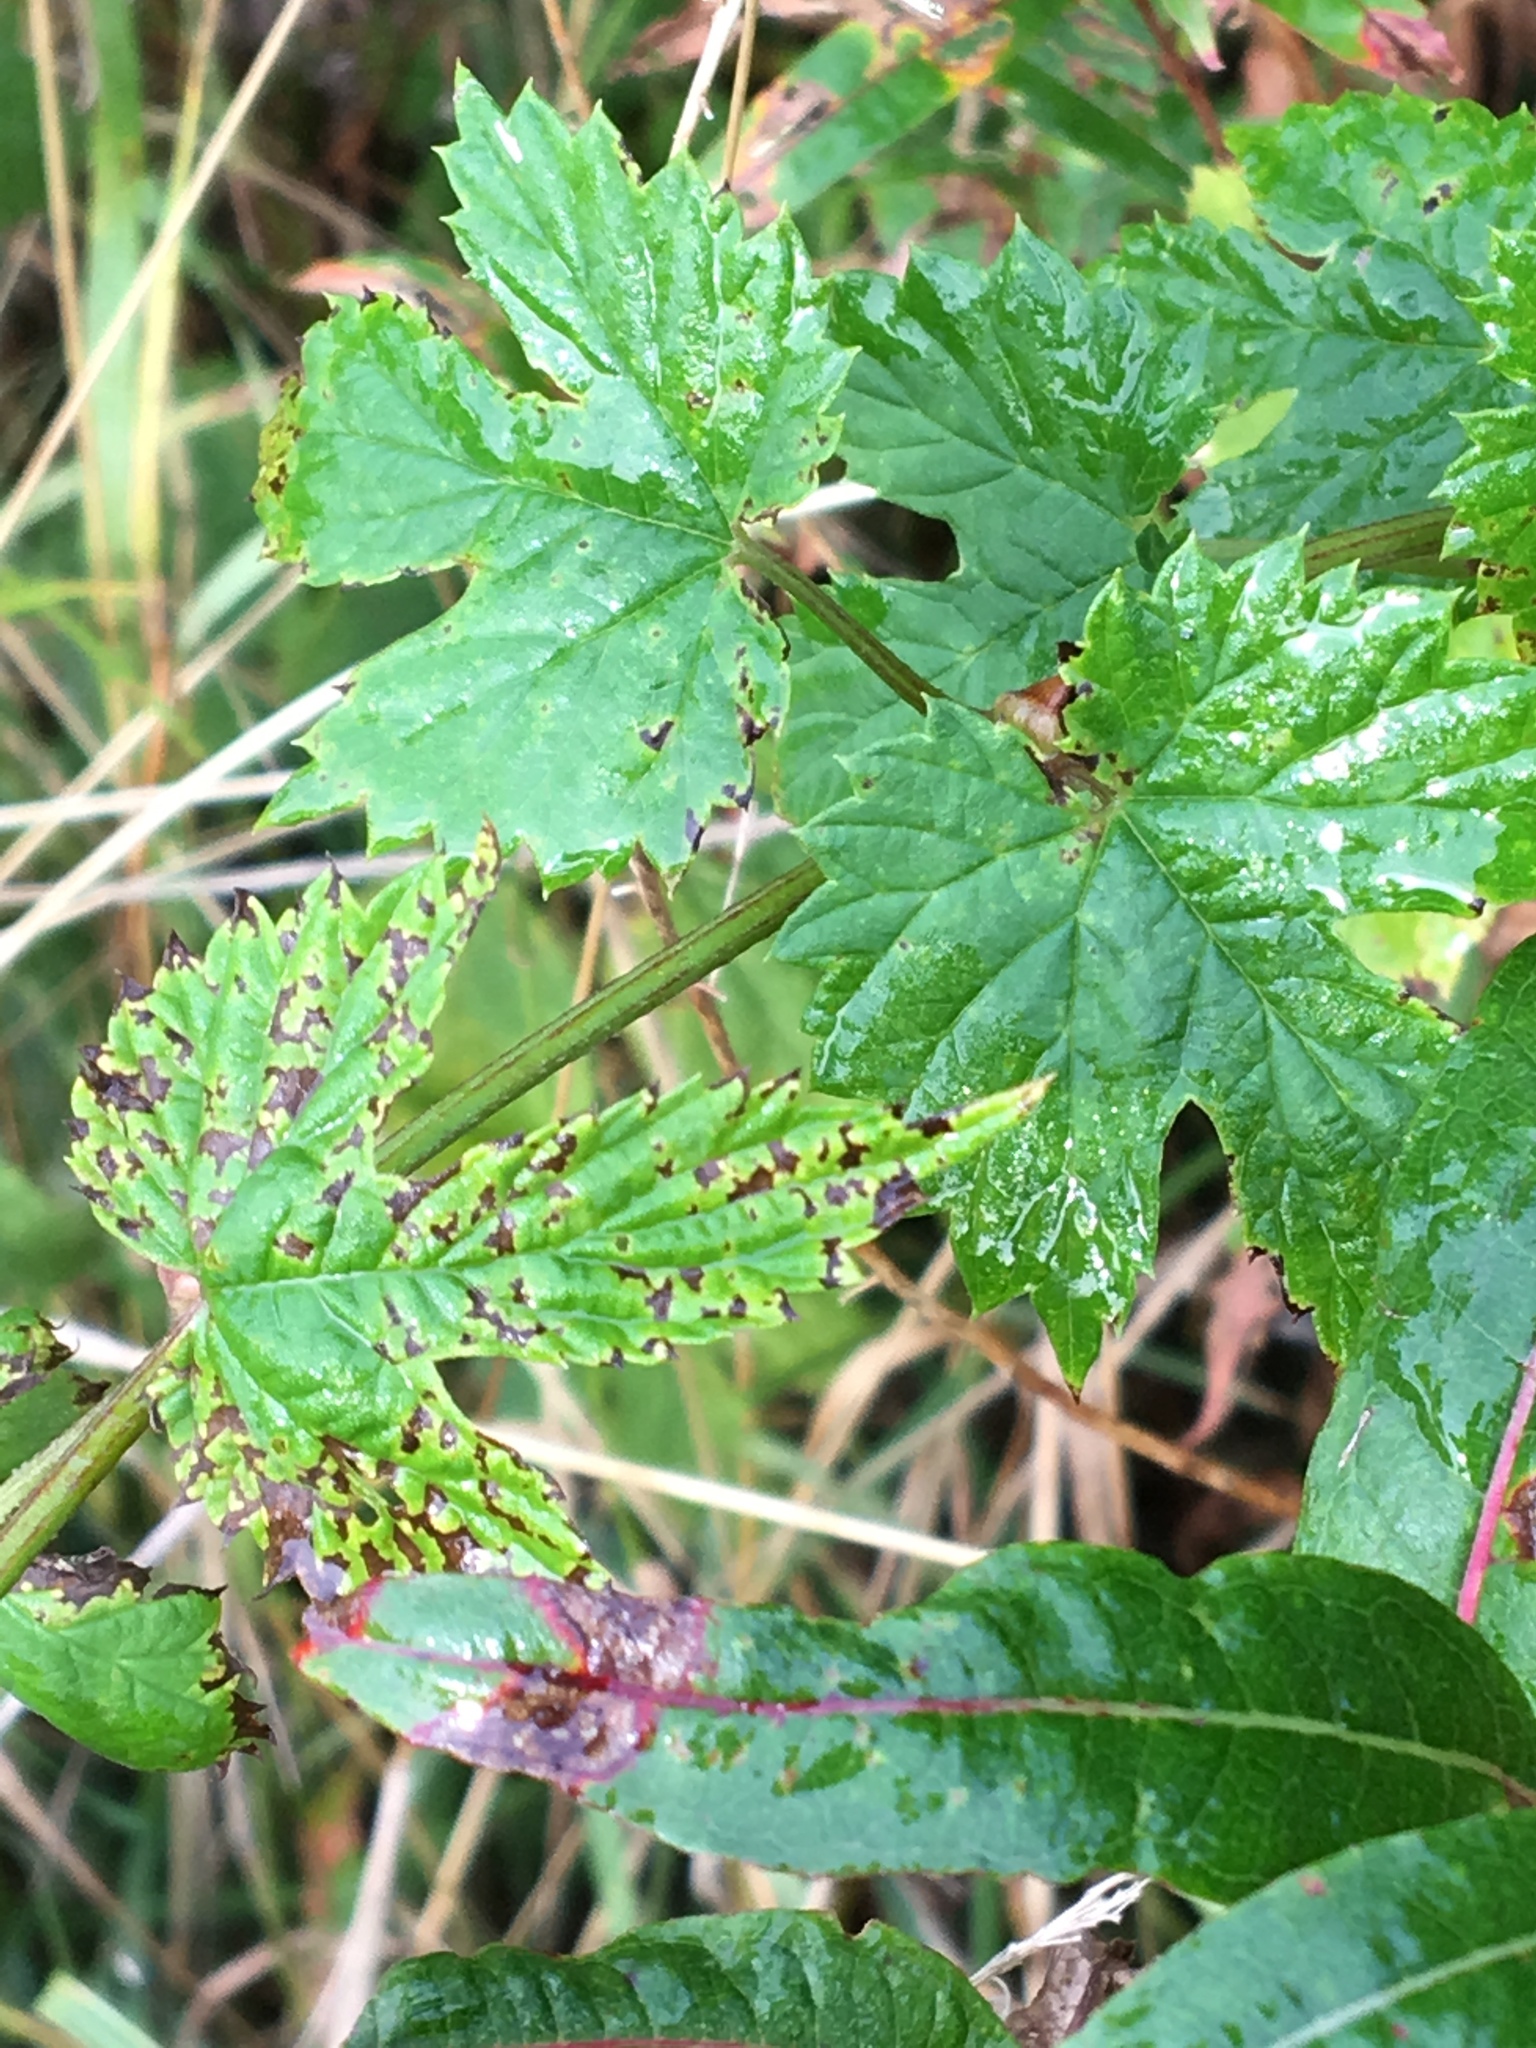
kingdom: Plantae
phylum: Tracheophyta
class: Magnoliopsida
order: Rosales
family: Cannabaceae
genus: Humulus
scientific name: Humulus lupulus
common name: Hop
